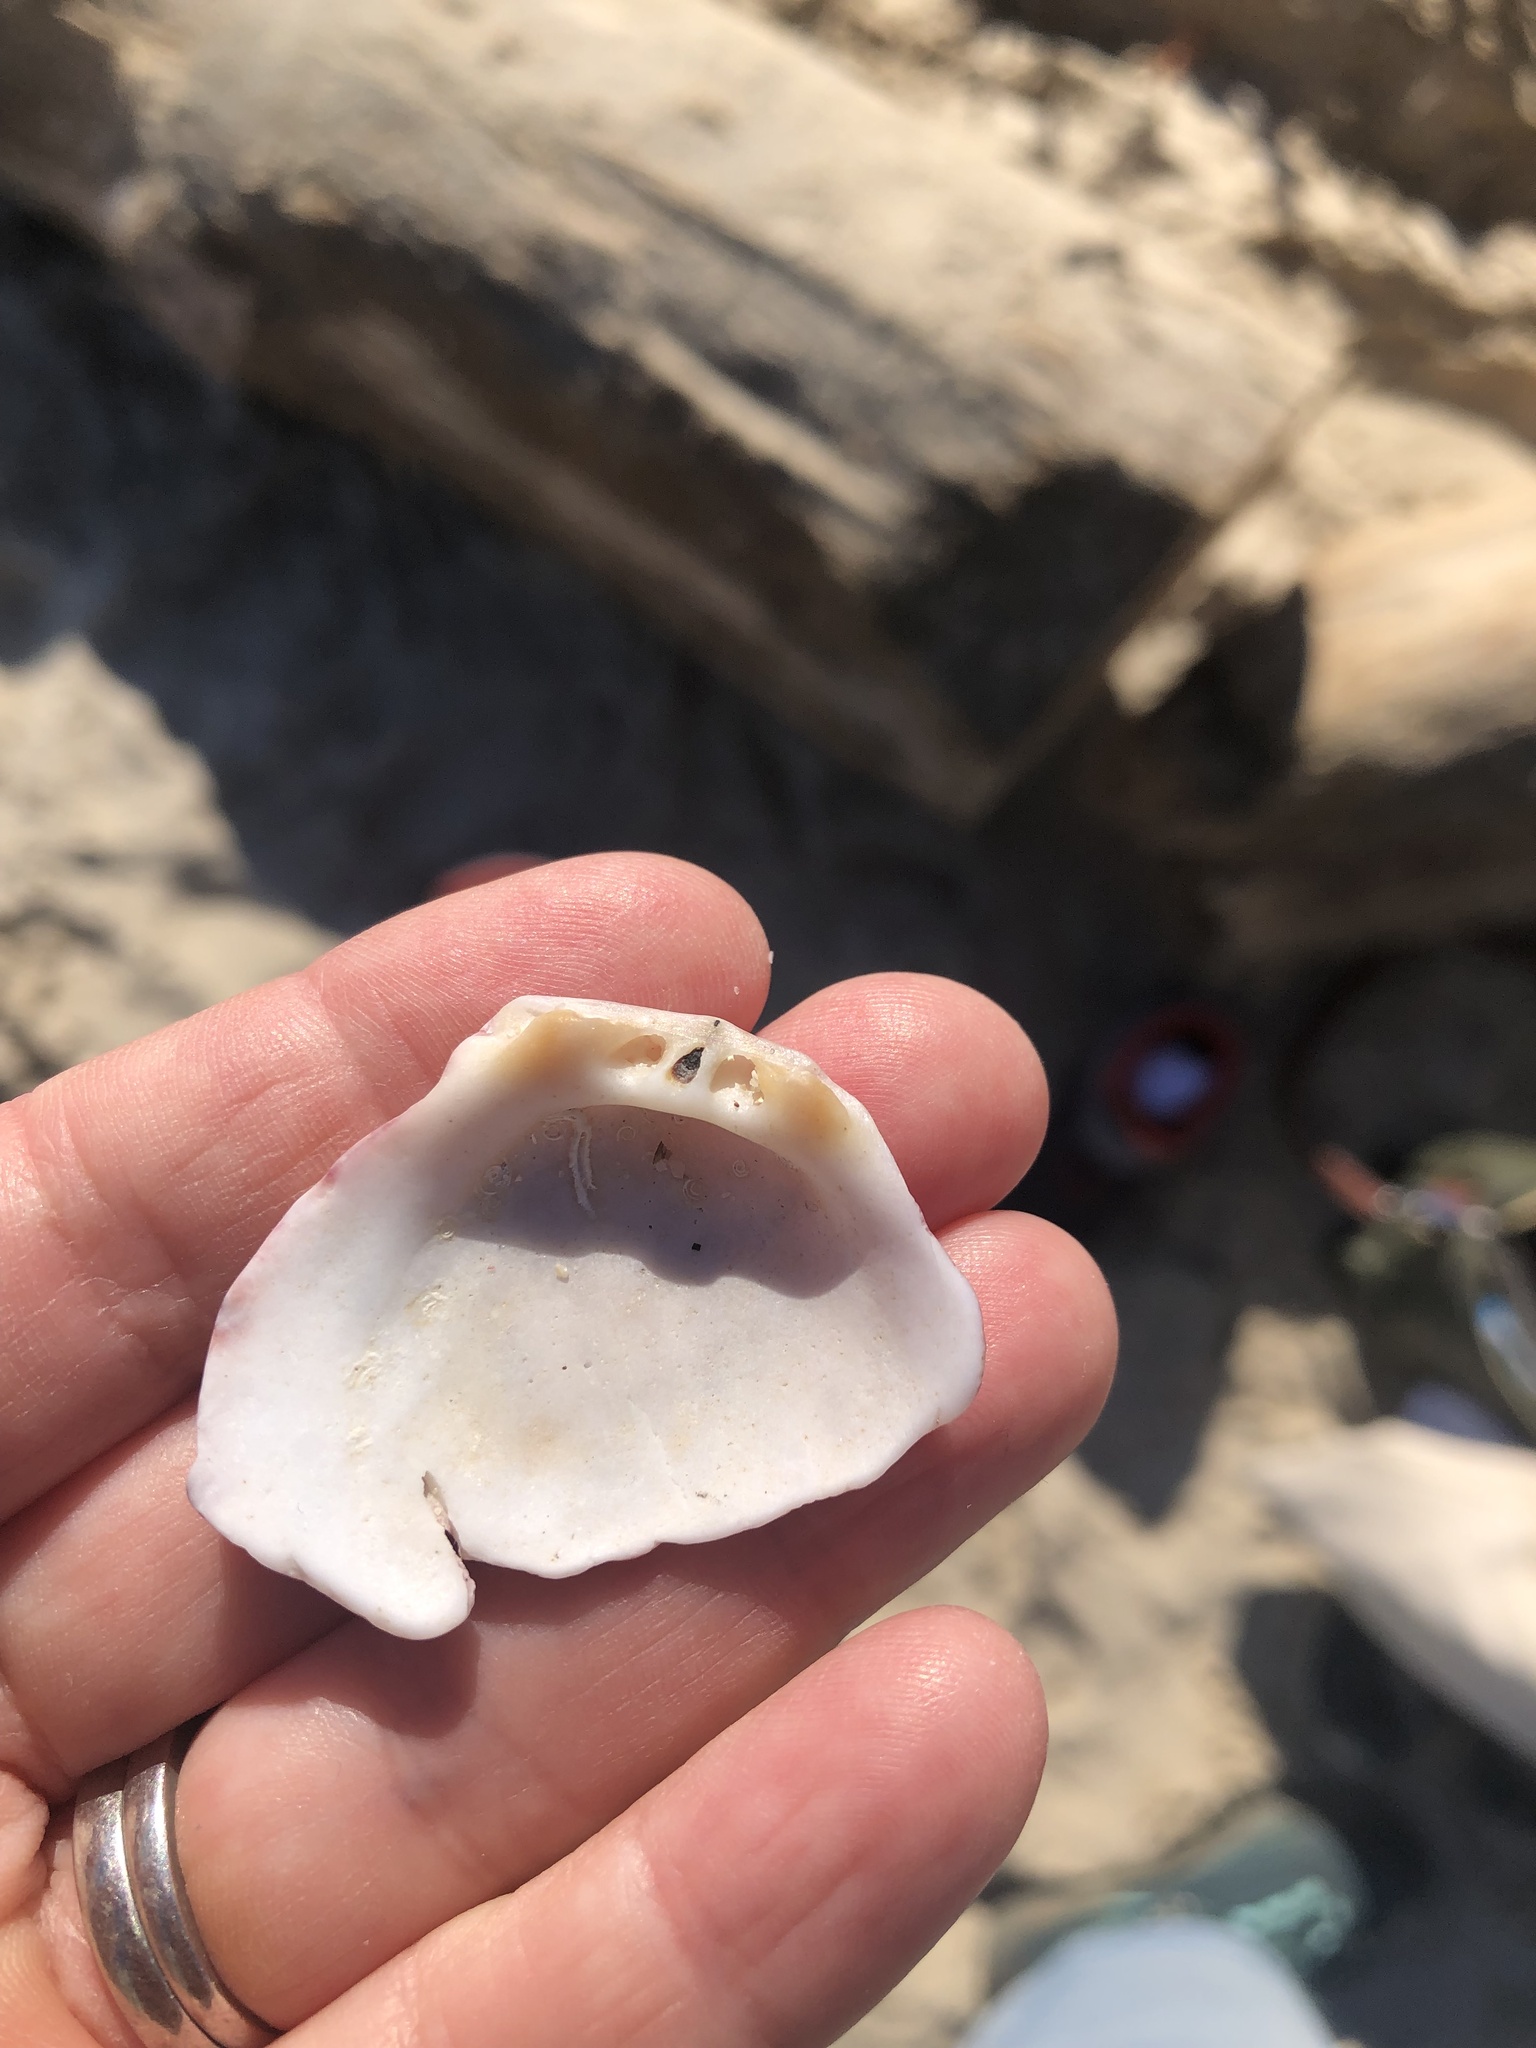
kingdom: Animalia
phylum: Mollusca
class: Bivalvia
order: Pectinida
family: Spondylidae
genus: Spondylus
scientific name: Spondylus gaederopus
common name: European thorny oyster
